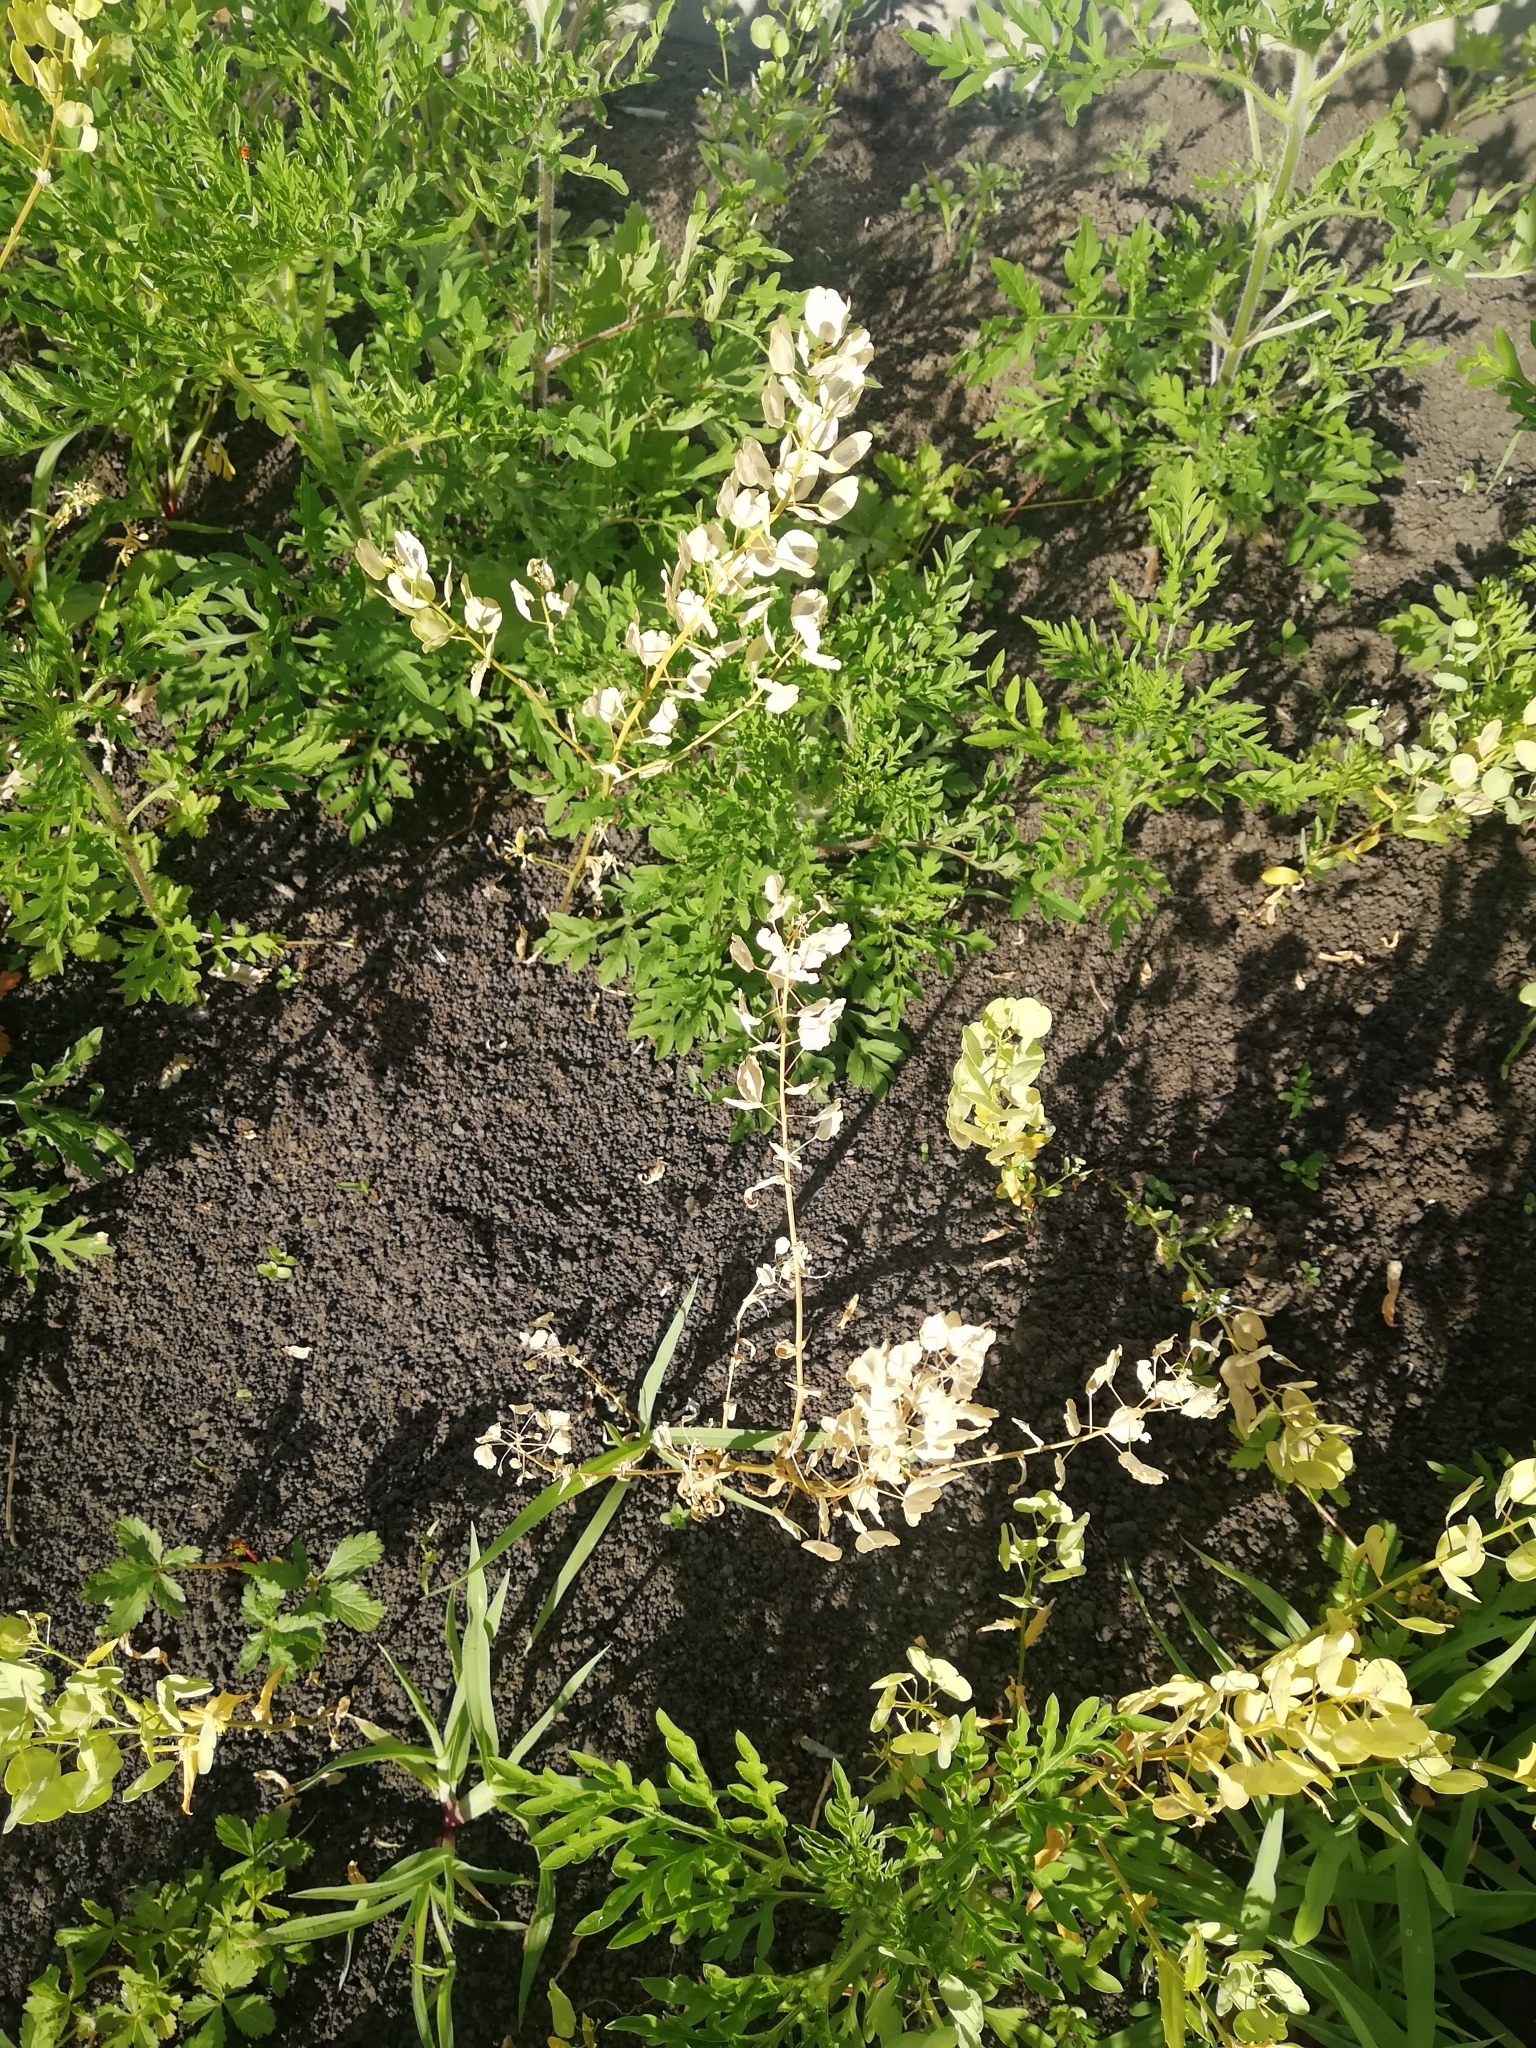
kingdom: Plantae
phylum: Tracheophyta
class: Magnoliopsida
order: Brassicales
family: Brassicaceae
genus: Thlaspi
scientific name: Thlaspi arvense
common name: Field pennycress
